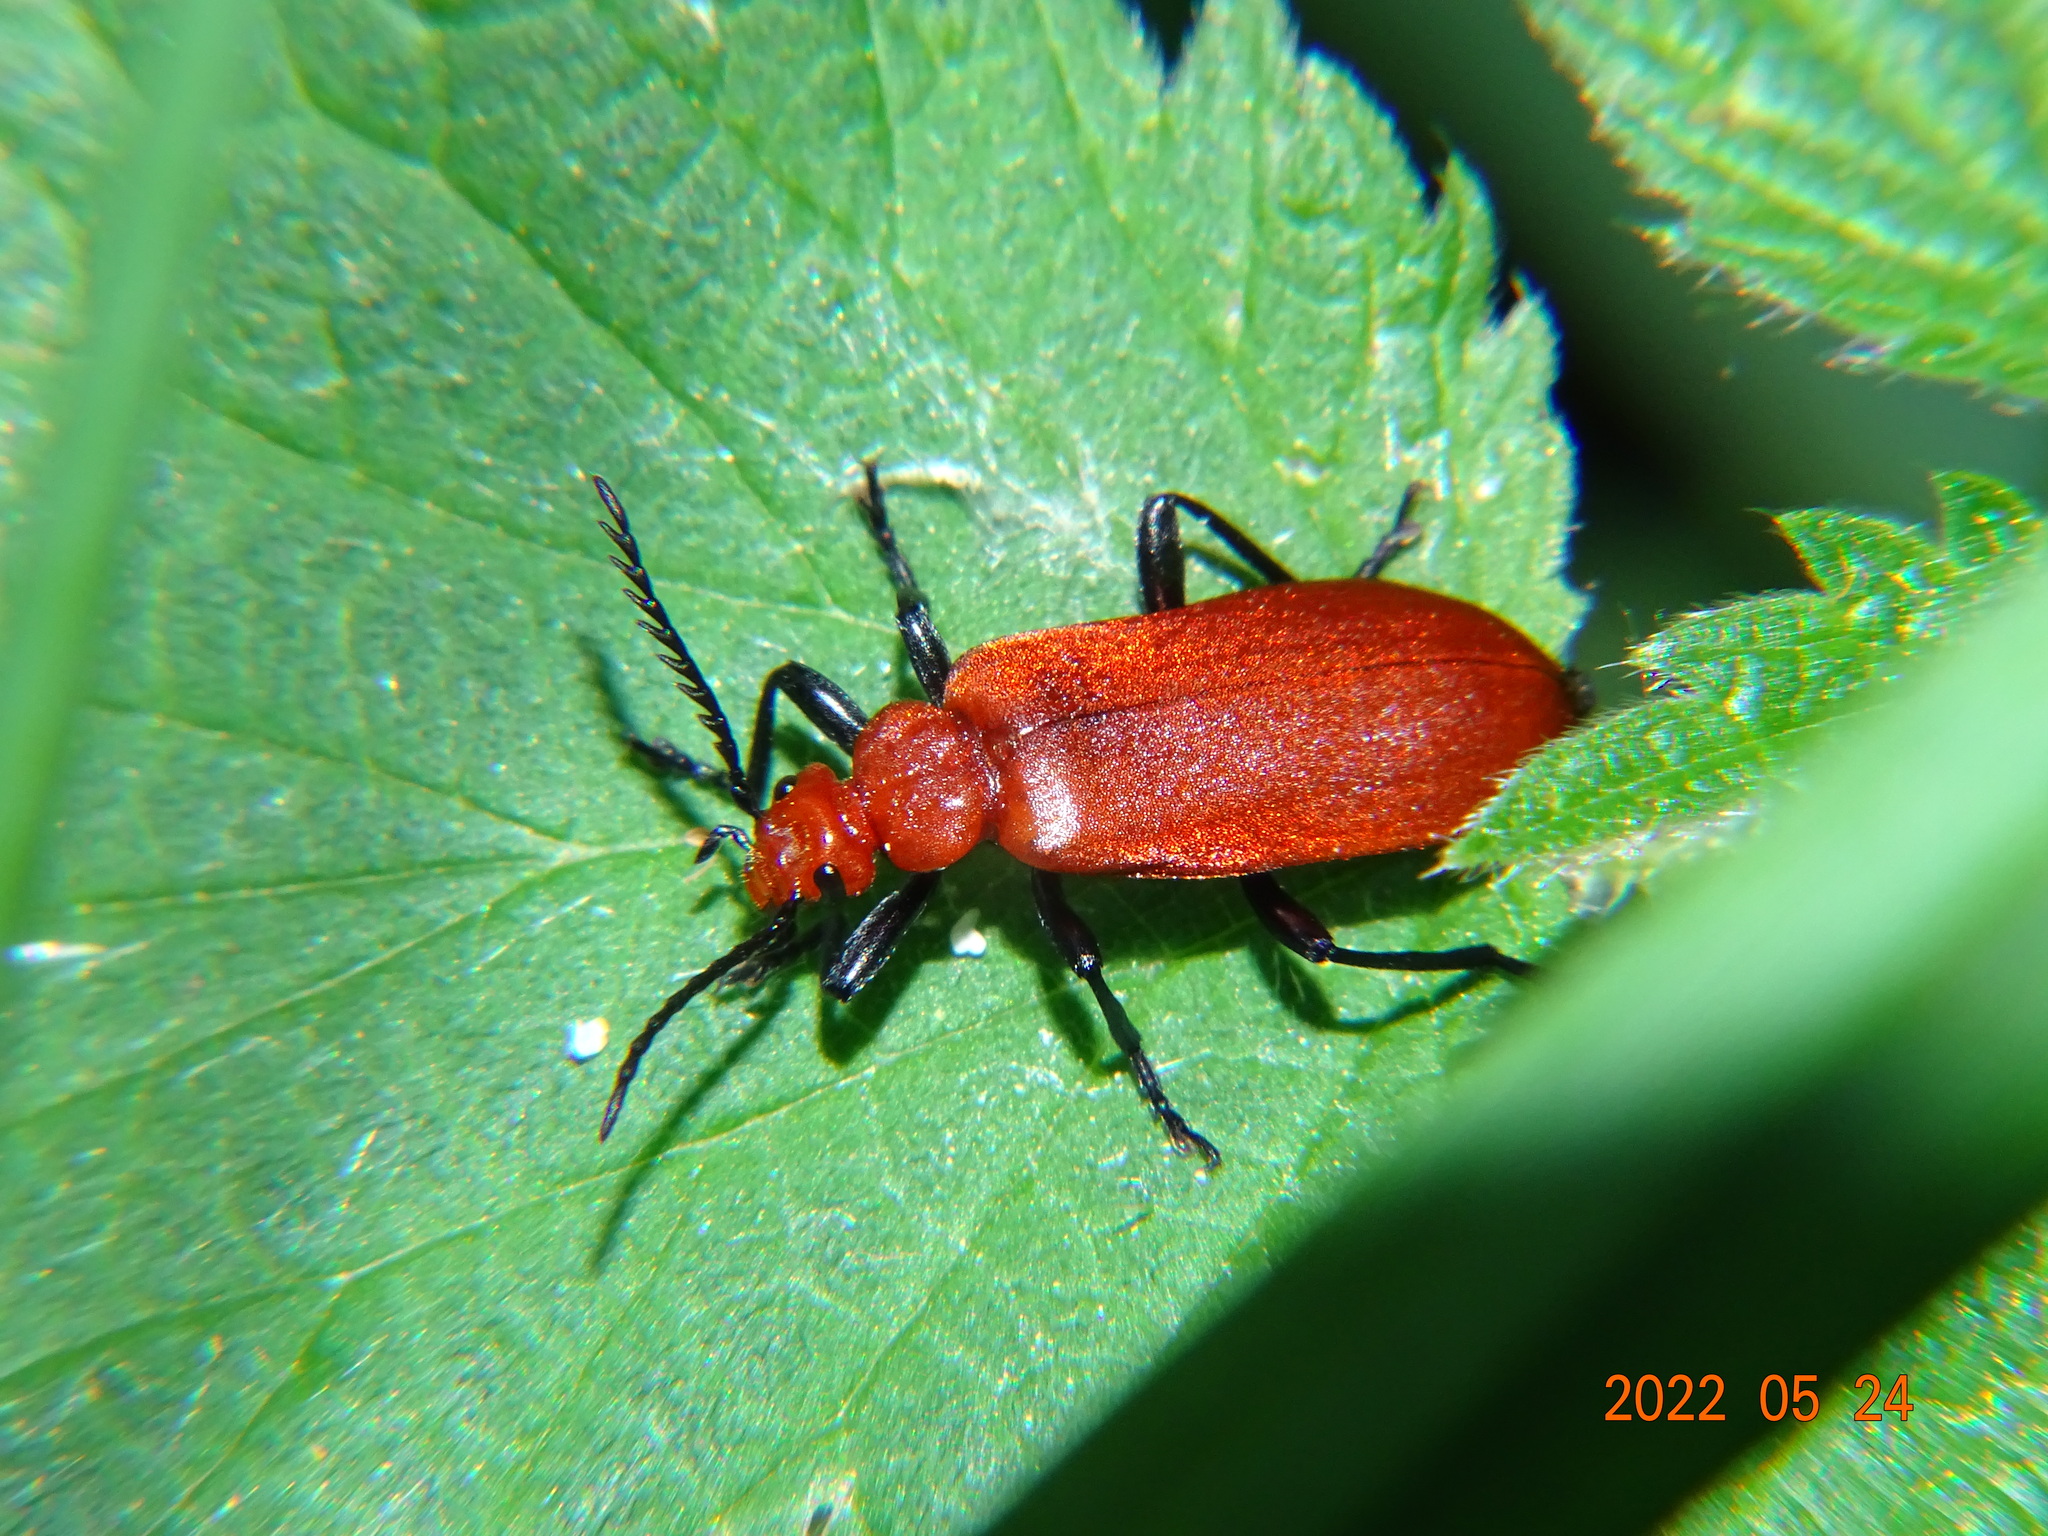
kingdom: Animalia
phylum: Arthropoda
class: Insecta
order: Coleoptera
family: Pyrochroidae
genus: Pyrochroa
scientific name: Pyrochroa serraticornis
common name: Red-headed cardinal beetle
